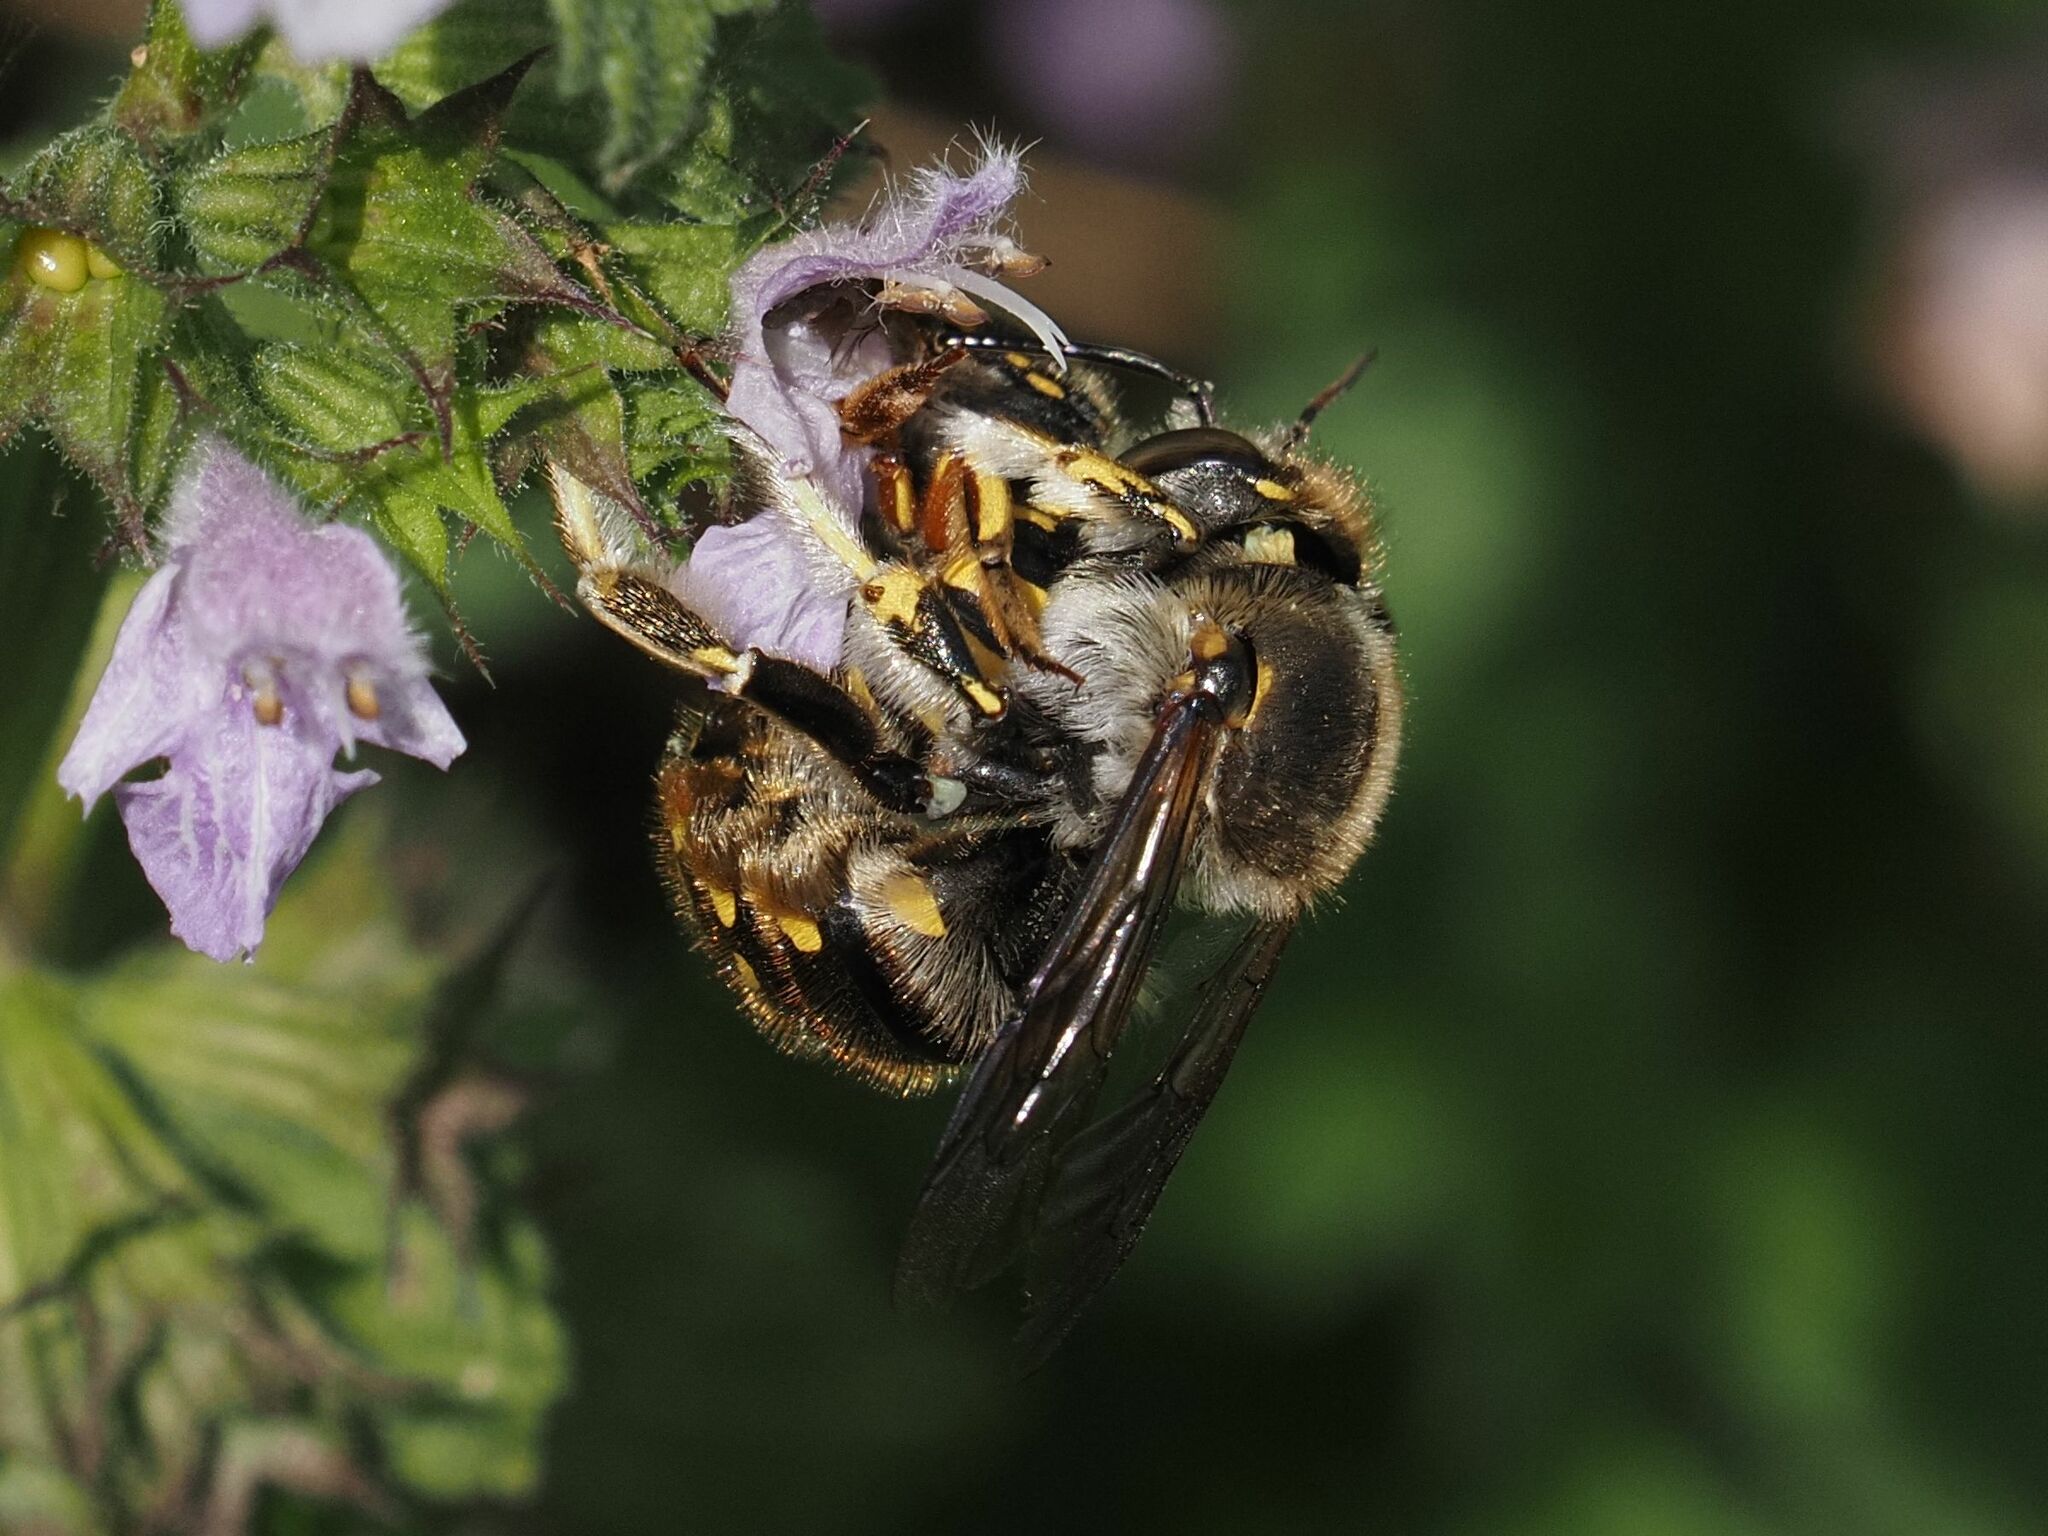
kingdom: Animalia
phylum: Arthropoda
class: Insecta
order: Hymenoptera
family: Megachilidae
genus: Anthidium
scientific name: Anthidium manicatum
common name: Wool carder bee
